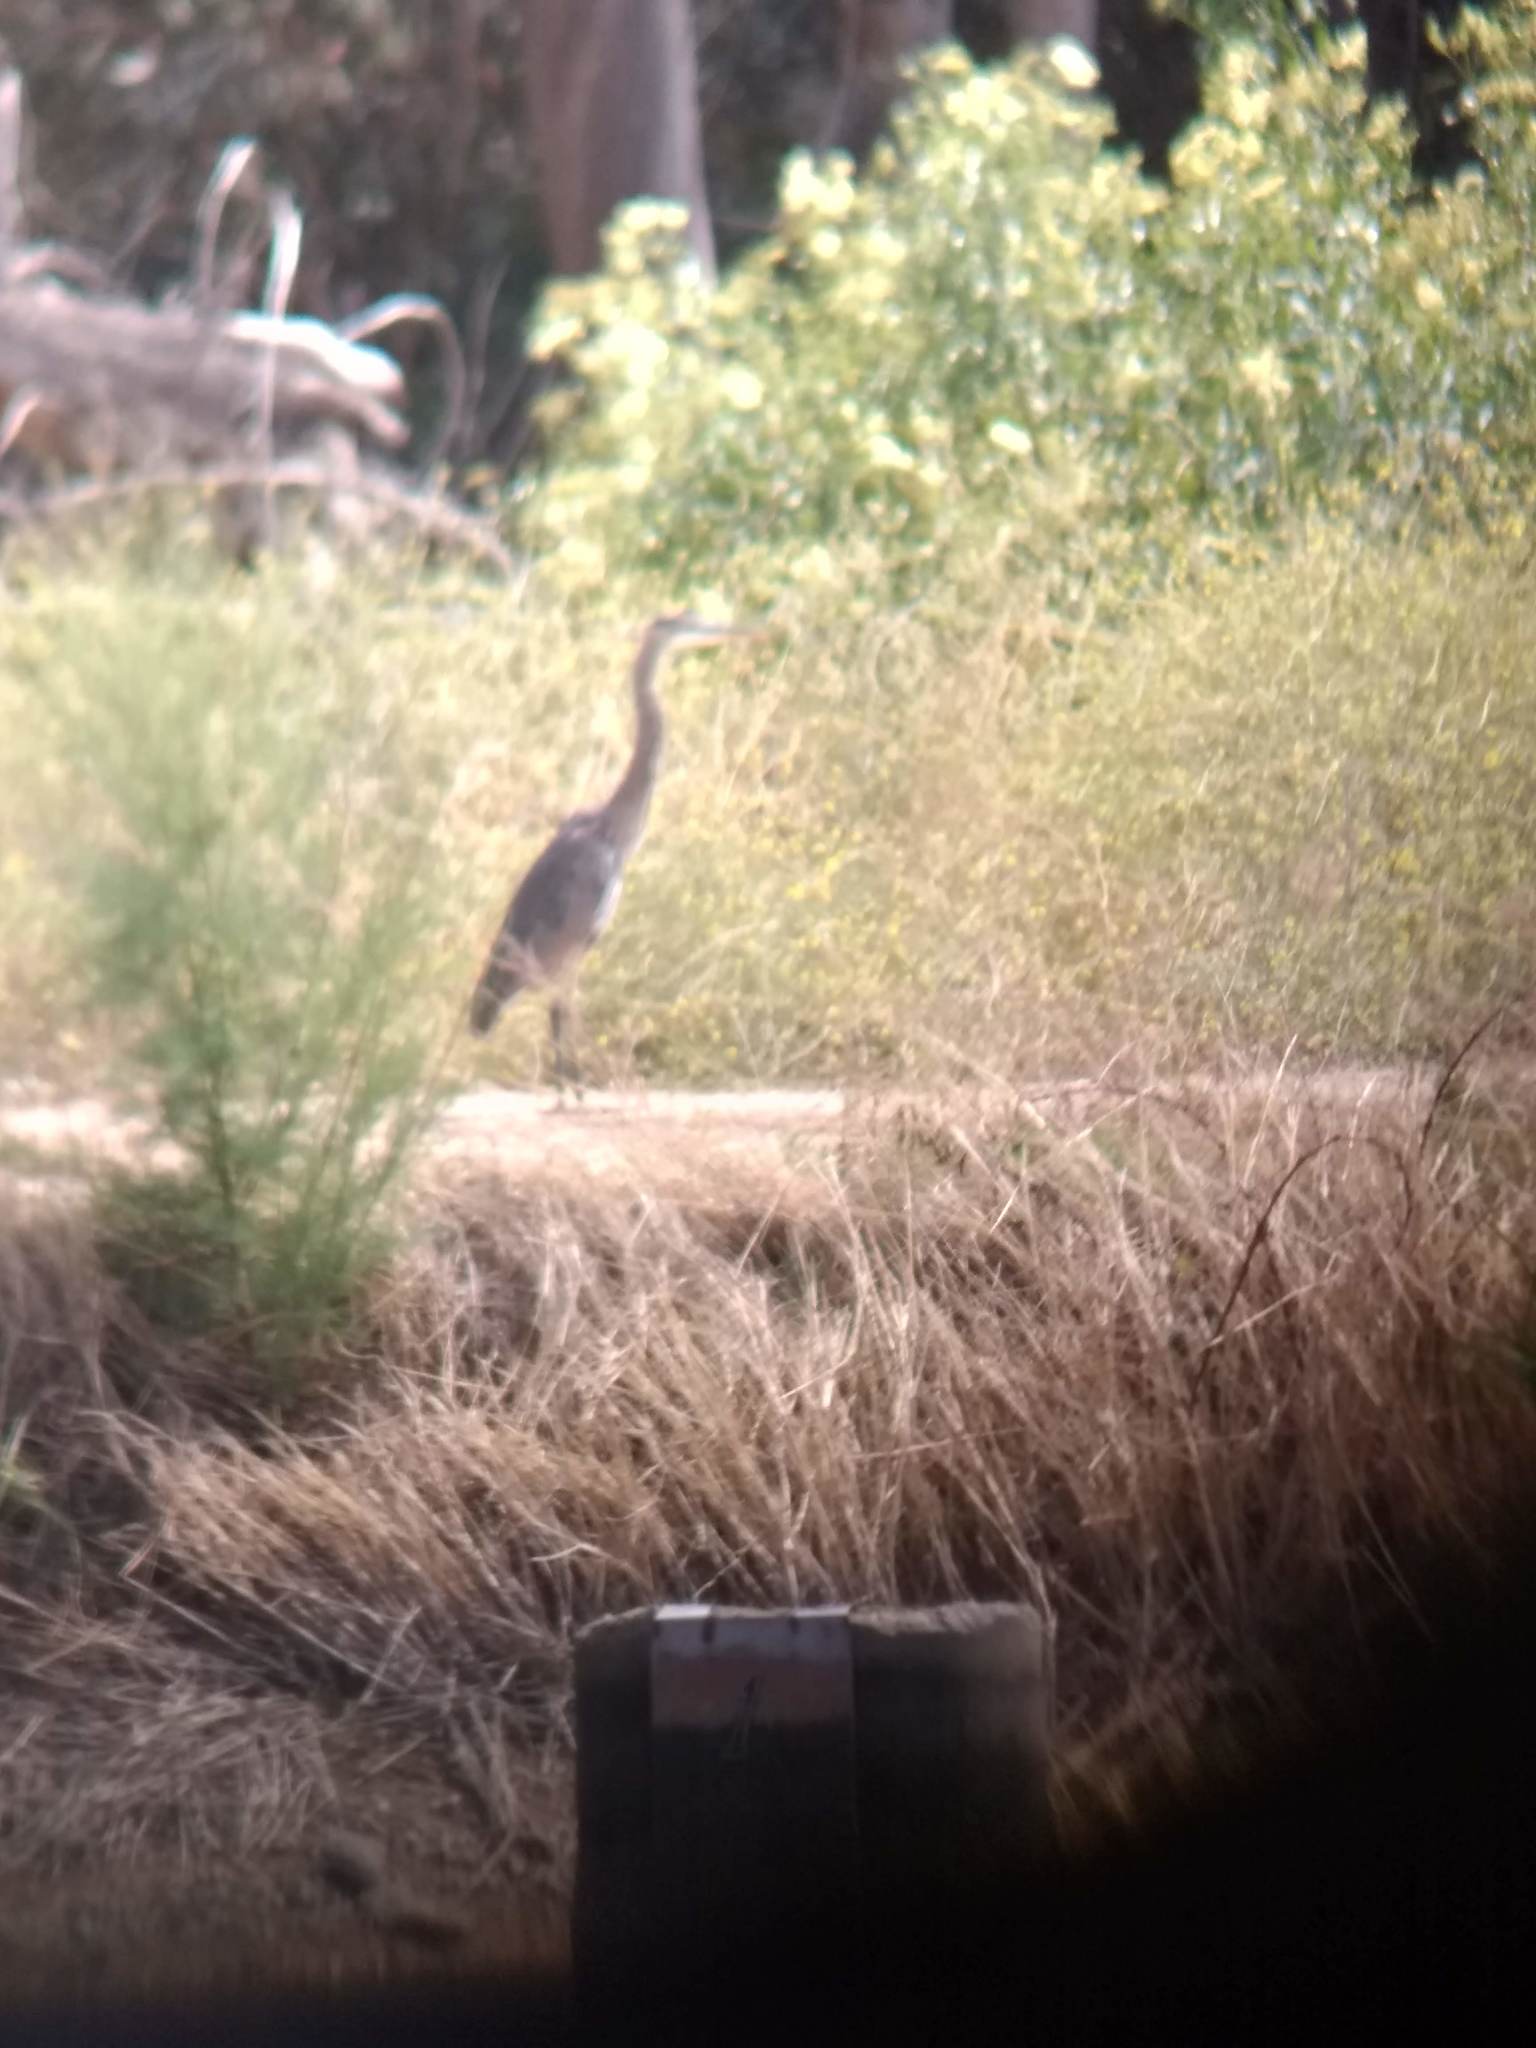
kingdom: Animalia
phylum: Chordata
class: Aves
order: Pelecaniformes
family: Ardeidae
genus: Ardea
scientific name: Ardea herodias
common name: Great blue heron
